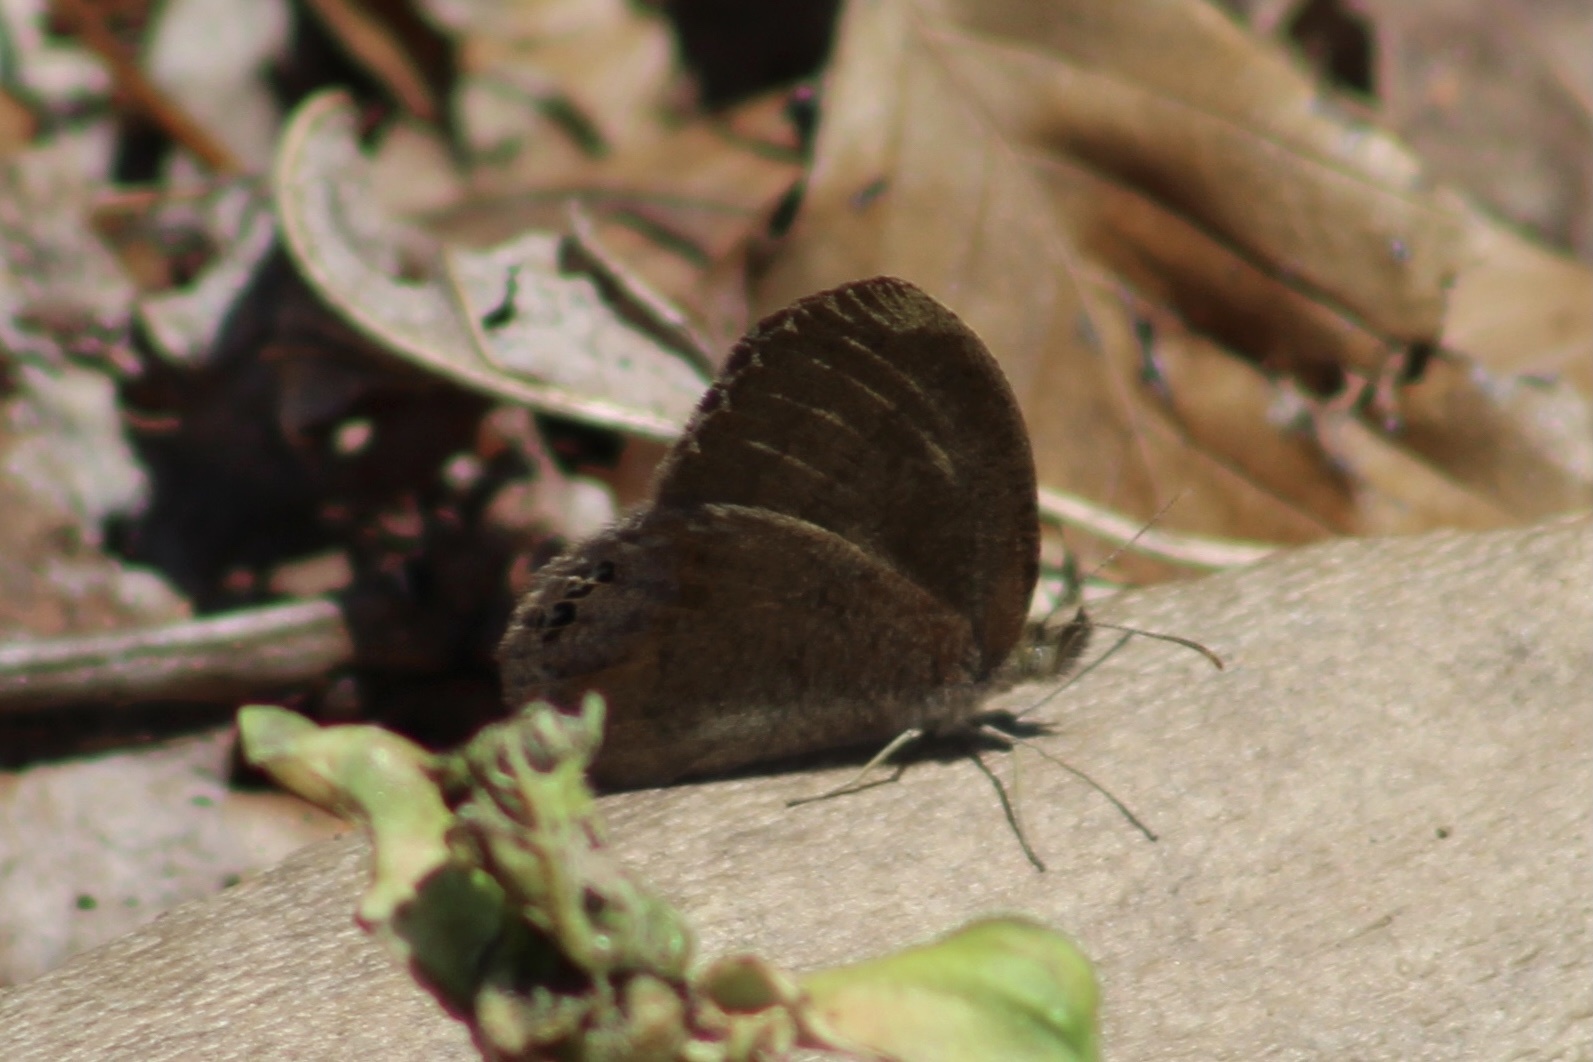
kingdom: Animalia
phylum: Arthropoda
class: Insecta
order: Lepidoptera
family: Nymphalidae
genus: Euptychia
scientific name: Euptychia cornelius
